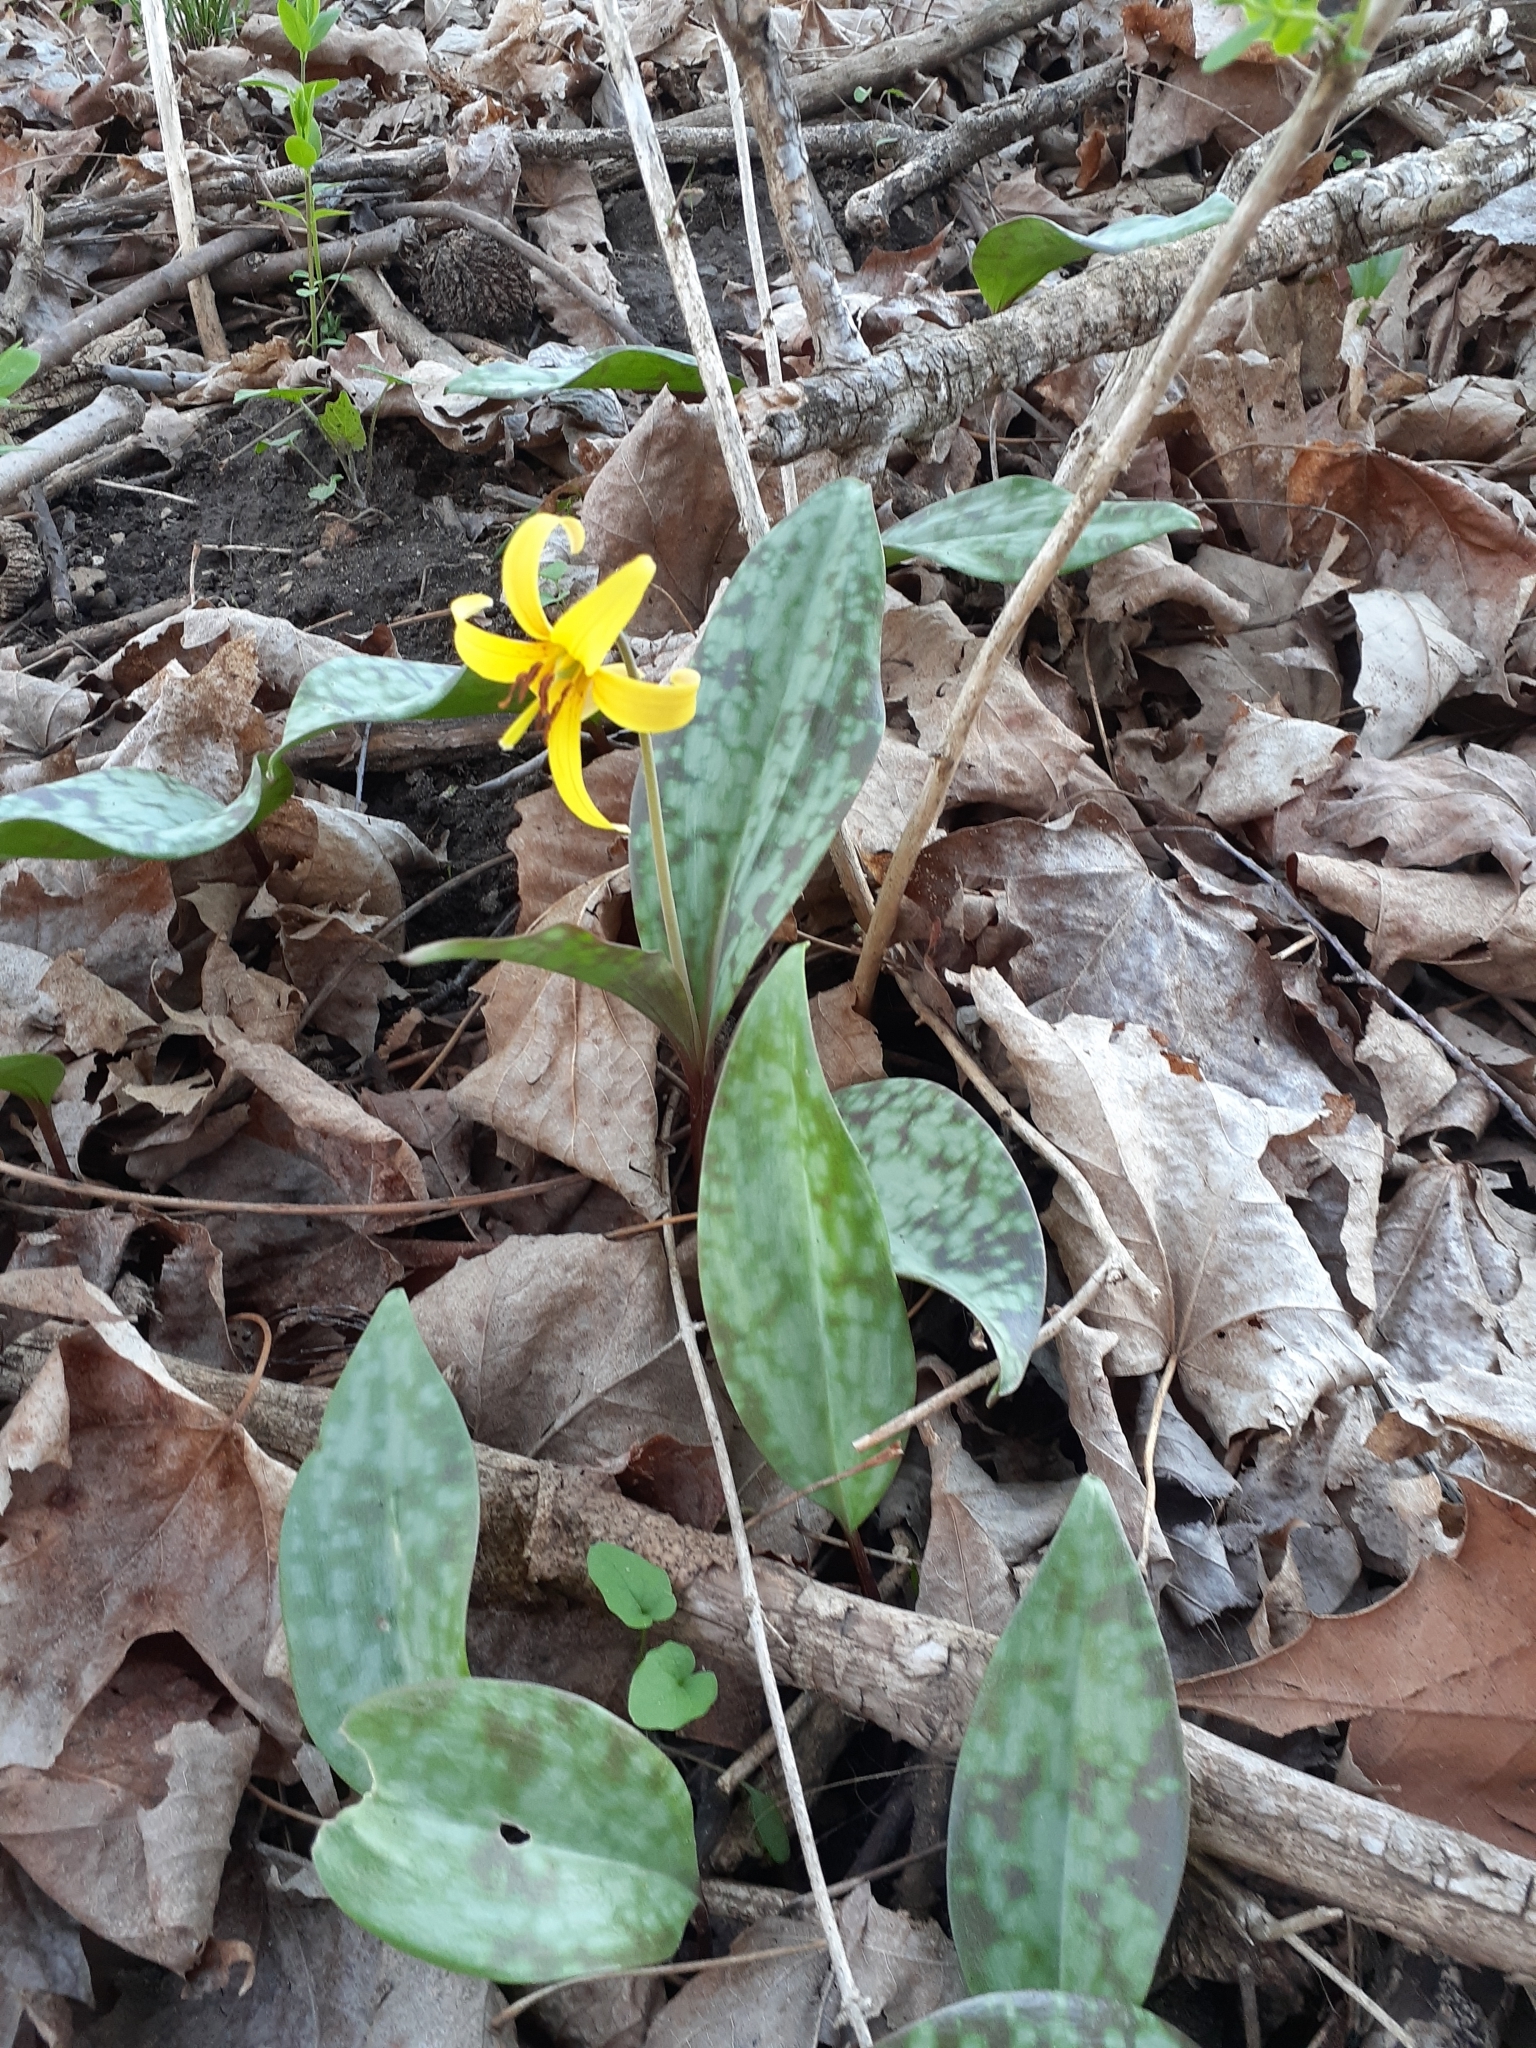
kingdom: Plantae
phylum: Tracheophyta
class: Liliopsida
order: Liliales
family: Liliaceae
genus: Erythronium
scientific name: Erythronium americanum
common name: Yellow adder's-tongue
